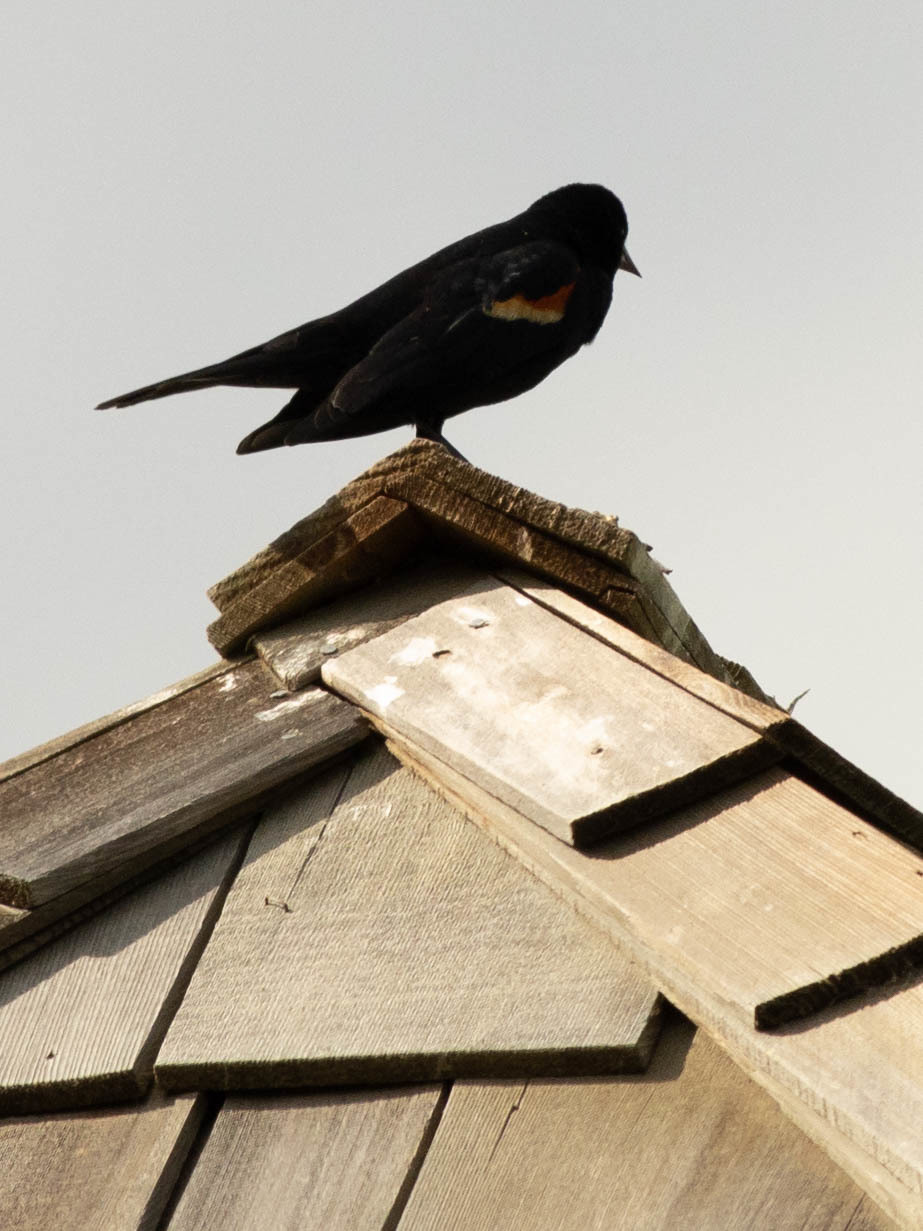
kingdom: Animalia
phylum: Chordata
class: Aves
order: Passeriformes
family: Icteridae
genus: Agelaius
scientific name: Agelaius phoeniceus
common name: Red-winged blackbird
